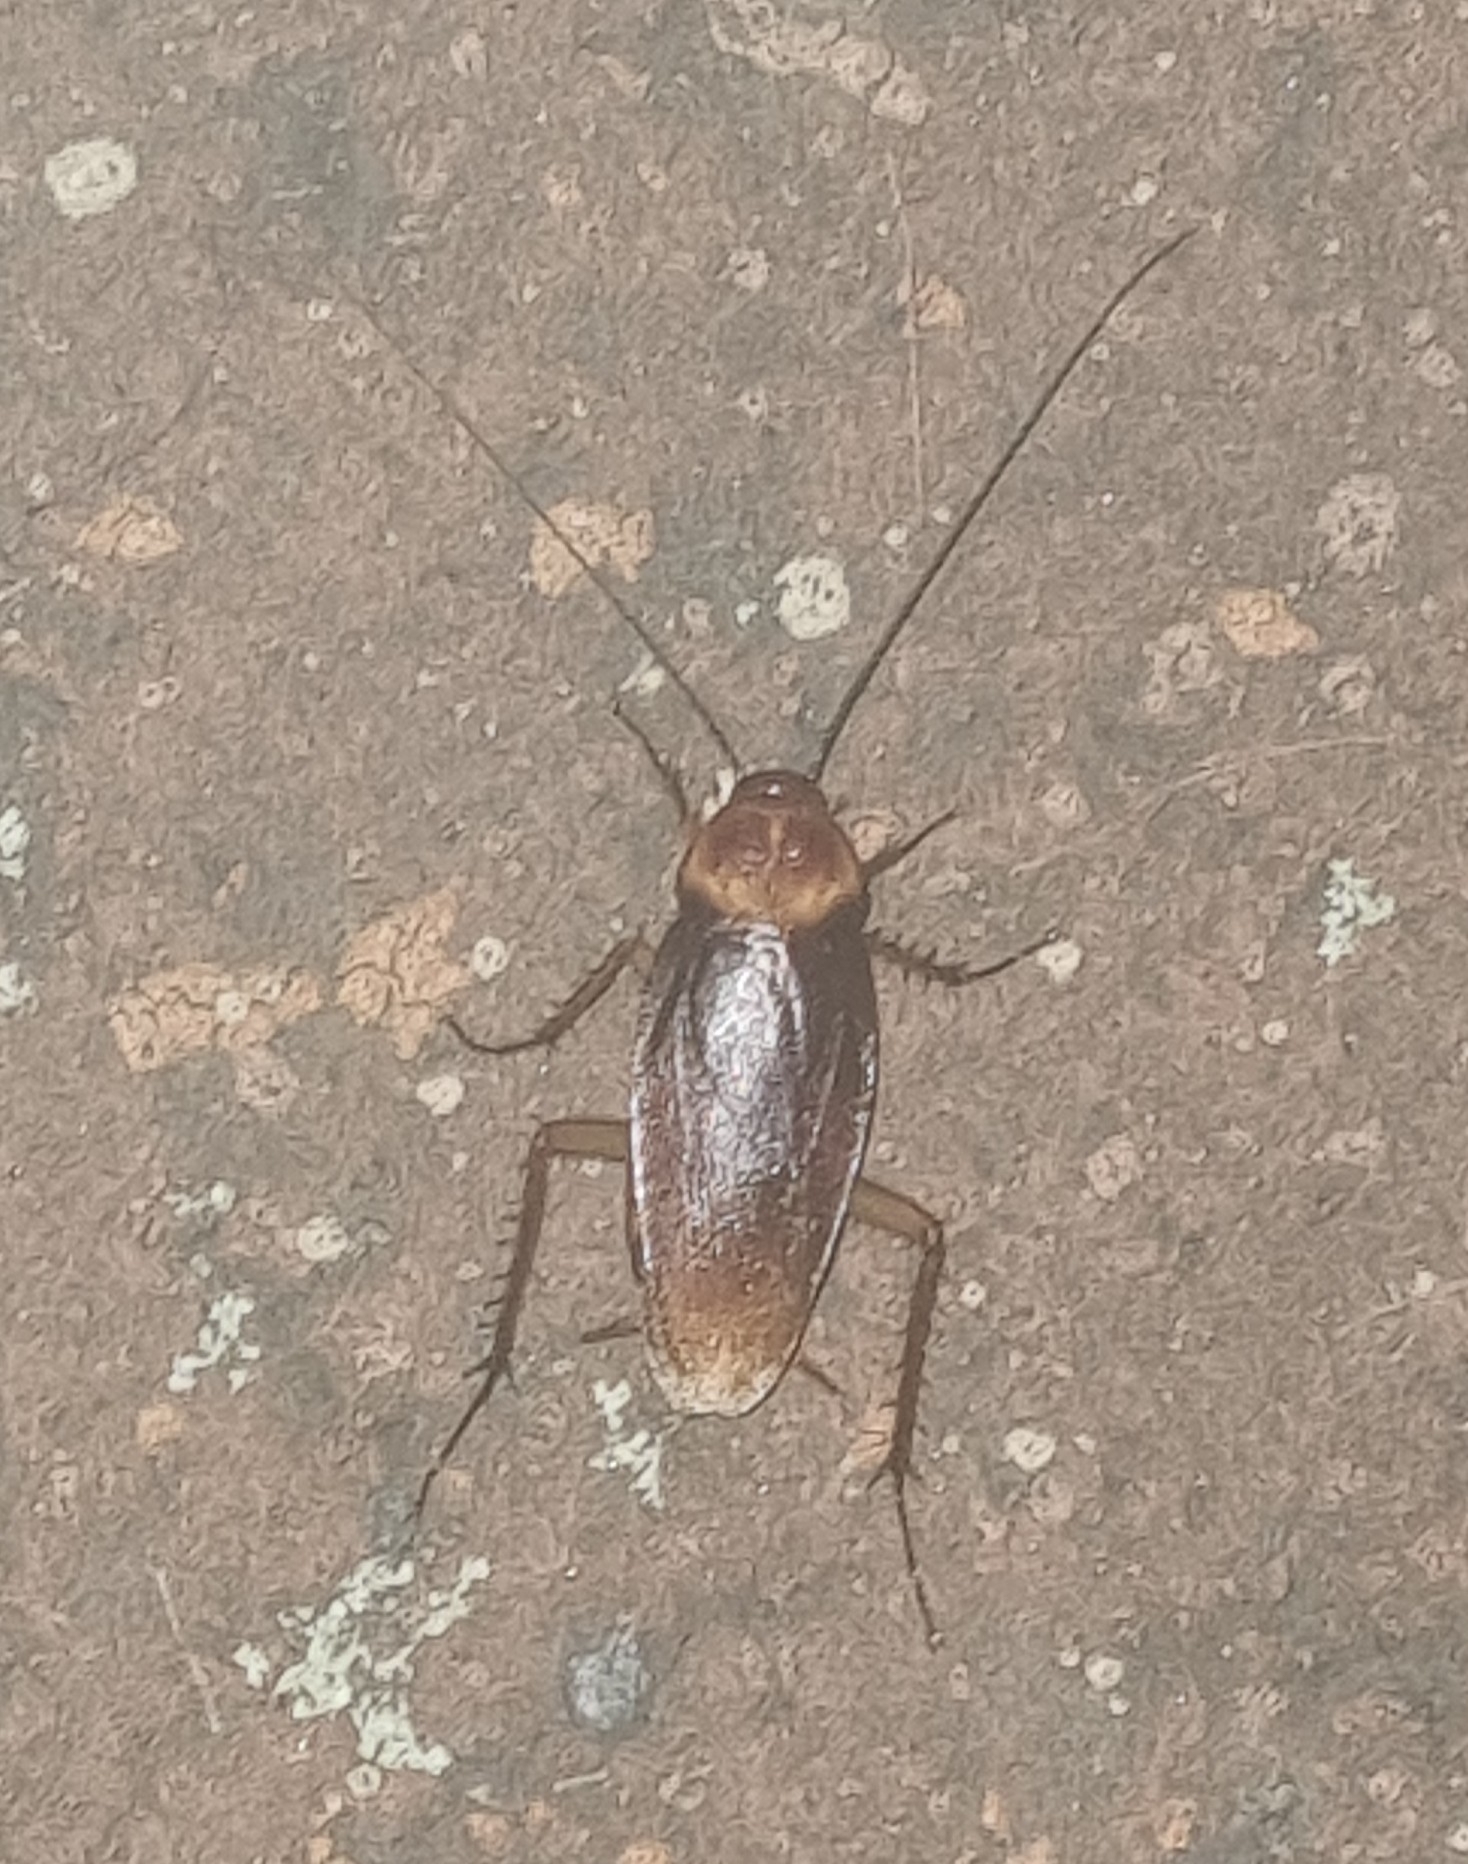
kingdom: Animalia
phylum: Arthropoda
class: Insecta
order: Blattodea
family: Blattidae
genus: Periplaneta
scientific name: Periplaneta americana
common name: American cockroach
